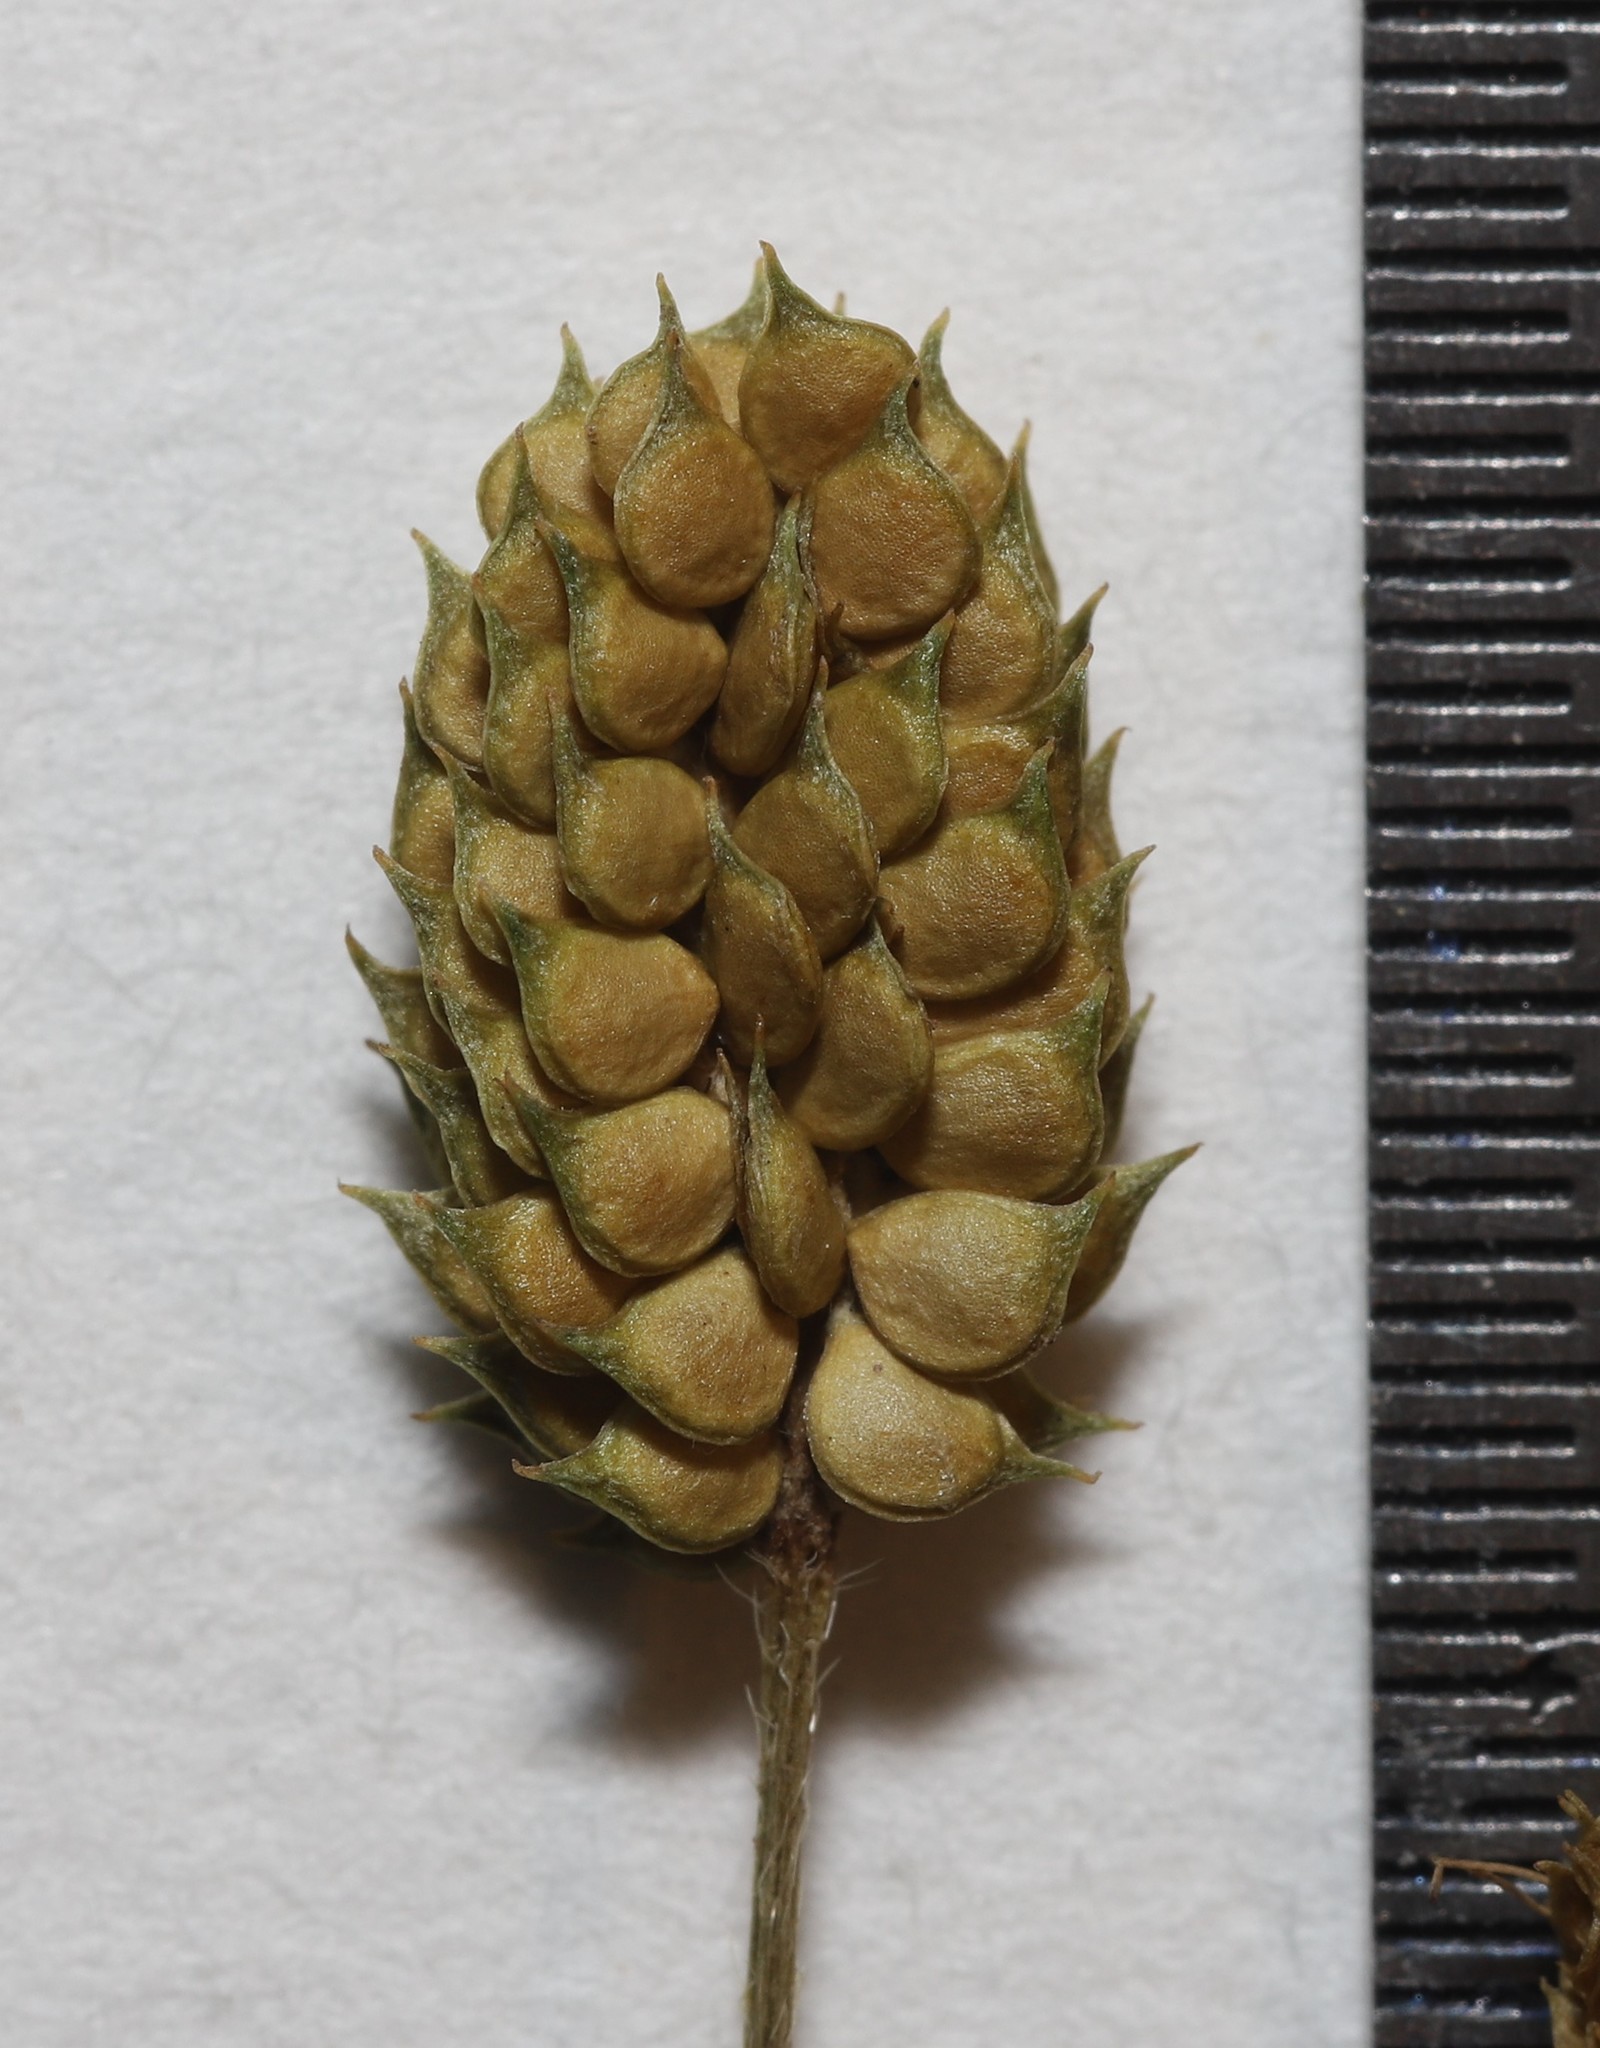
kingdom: Plantae
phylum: Tracheophyta
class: Magnoliopsida
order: Ranunculales
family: Ranunculaceae
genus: Ranunculus
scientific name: Ranunculus pensylvanicus
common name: Bristly buttercup
